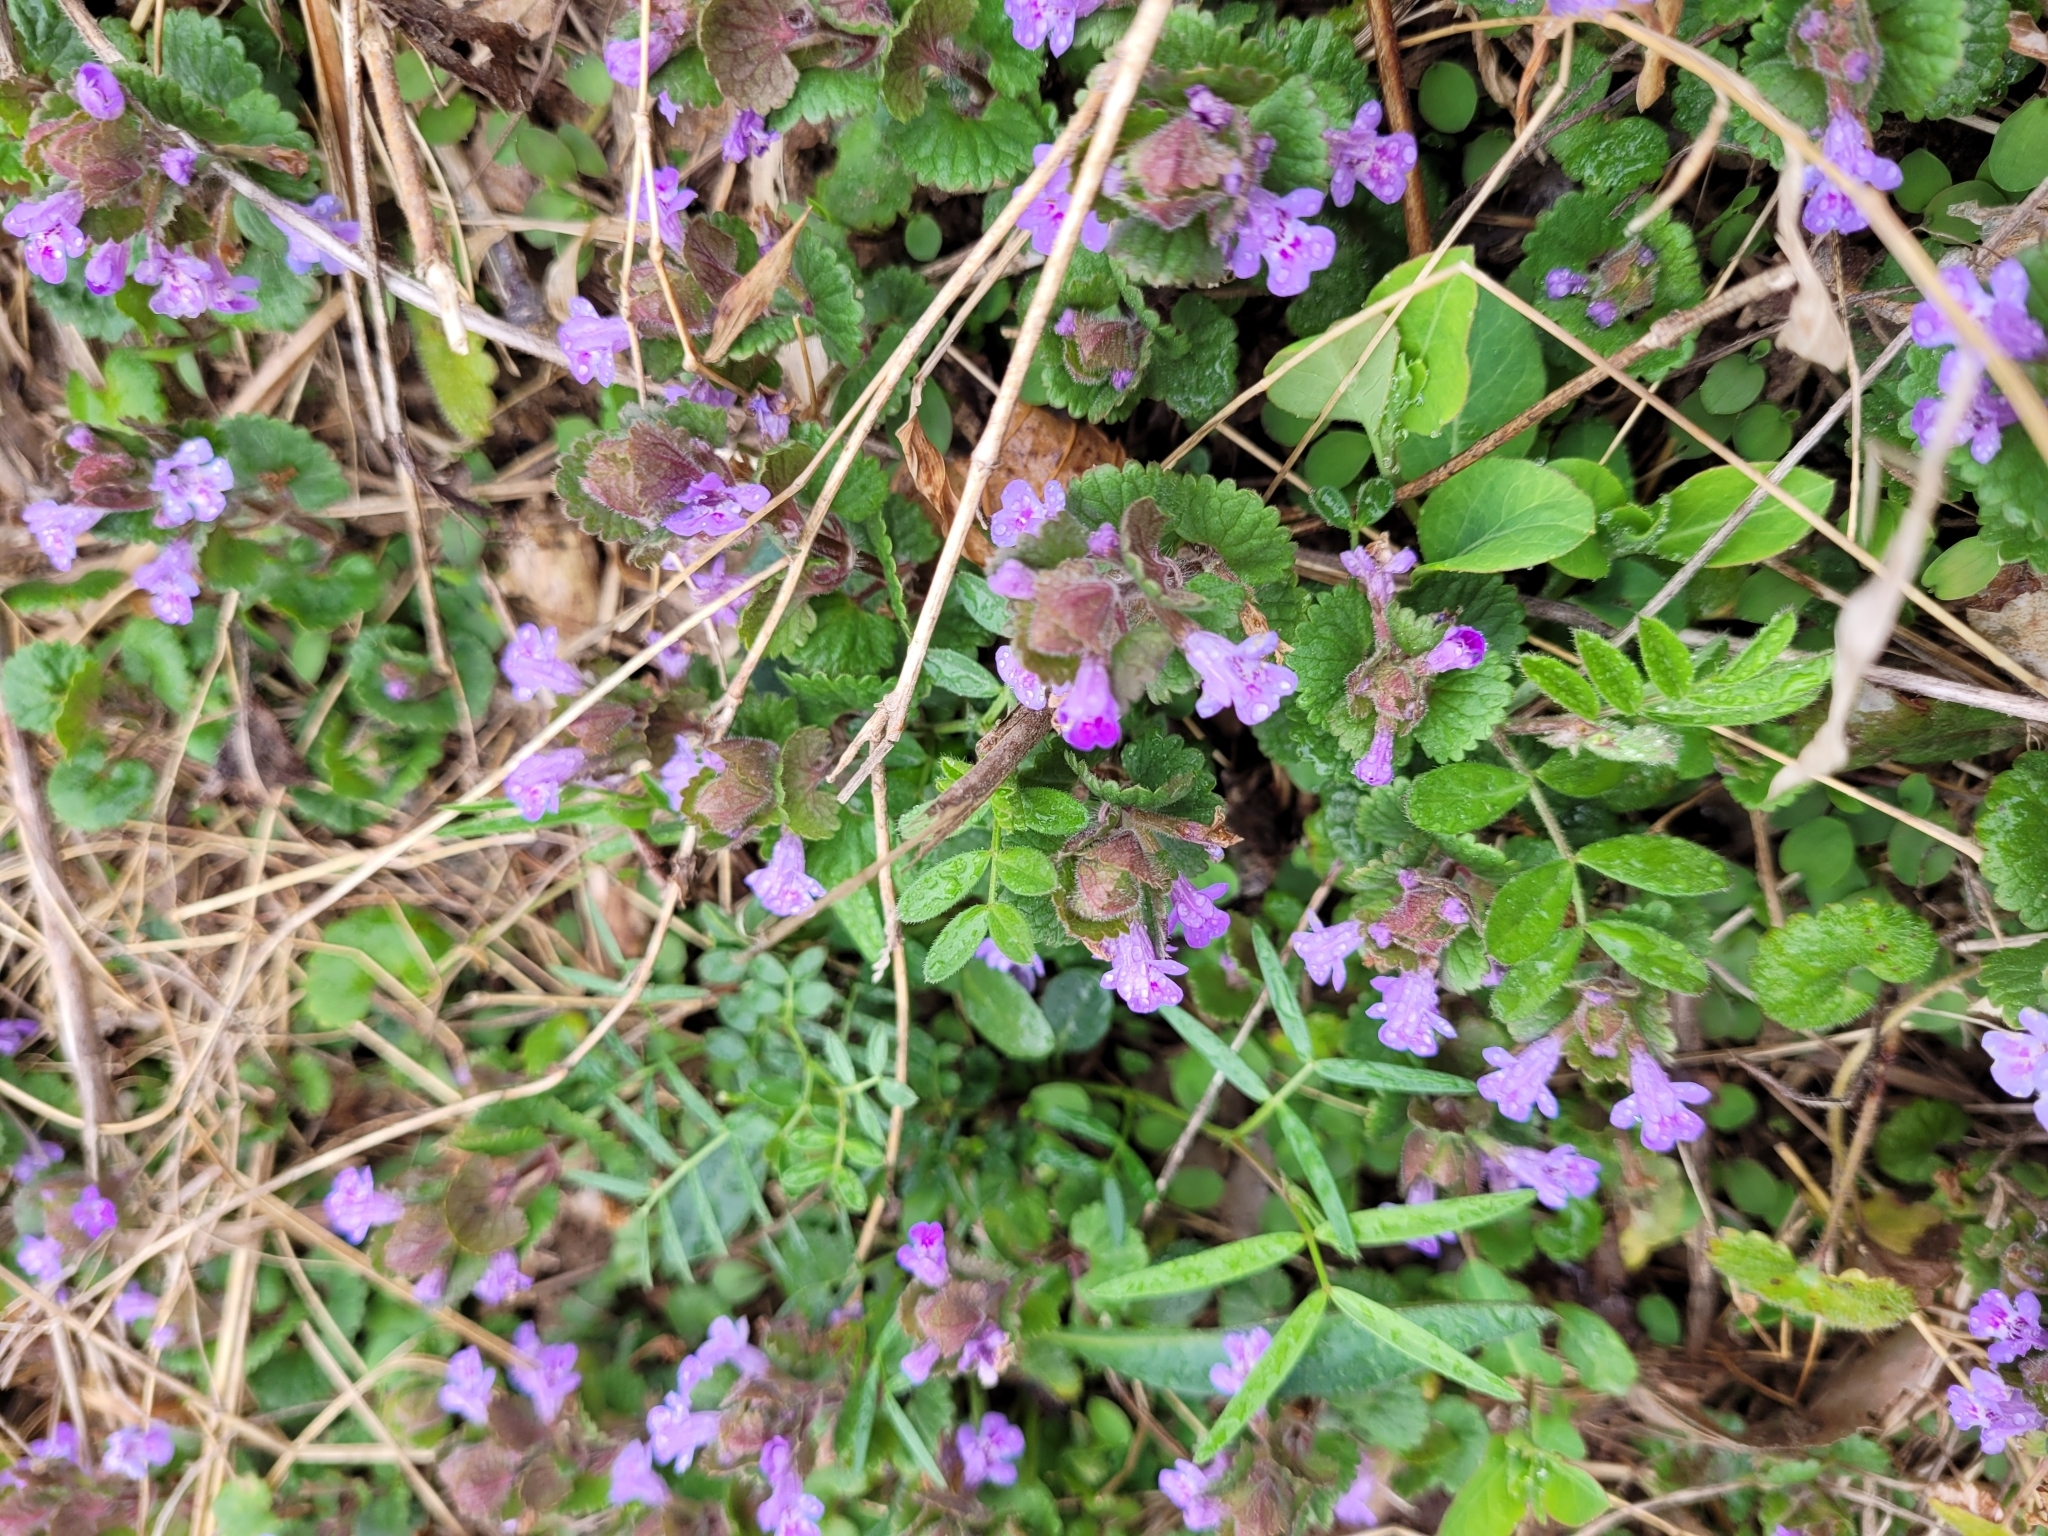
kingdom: Plantae
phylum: Tracheophyta
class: Magnoliopsida
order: Lamiales
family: Lamiaceae
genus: Glechoma
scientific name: Glechoma hederacea
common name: Ground ivy
